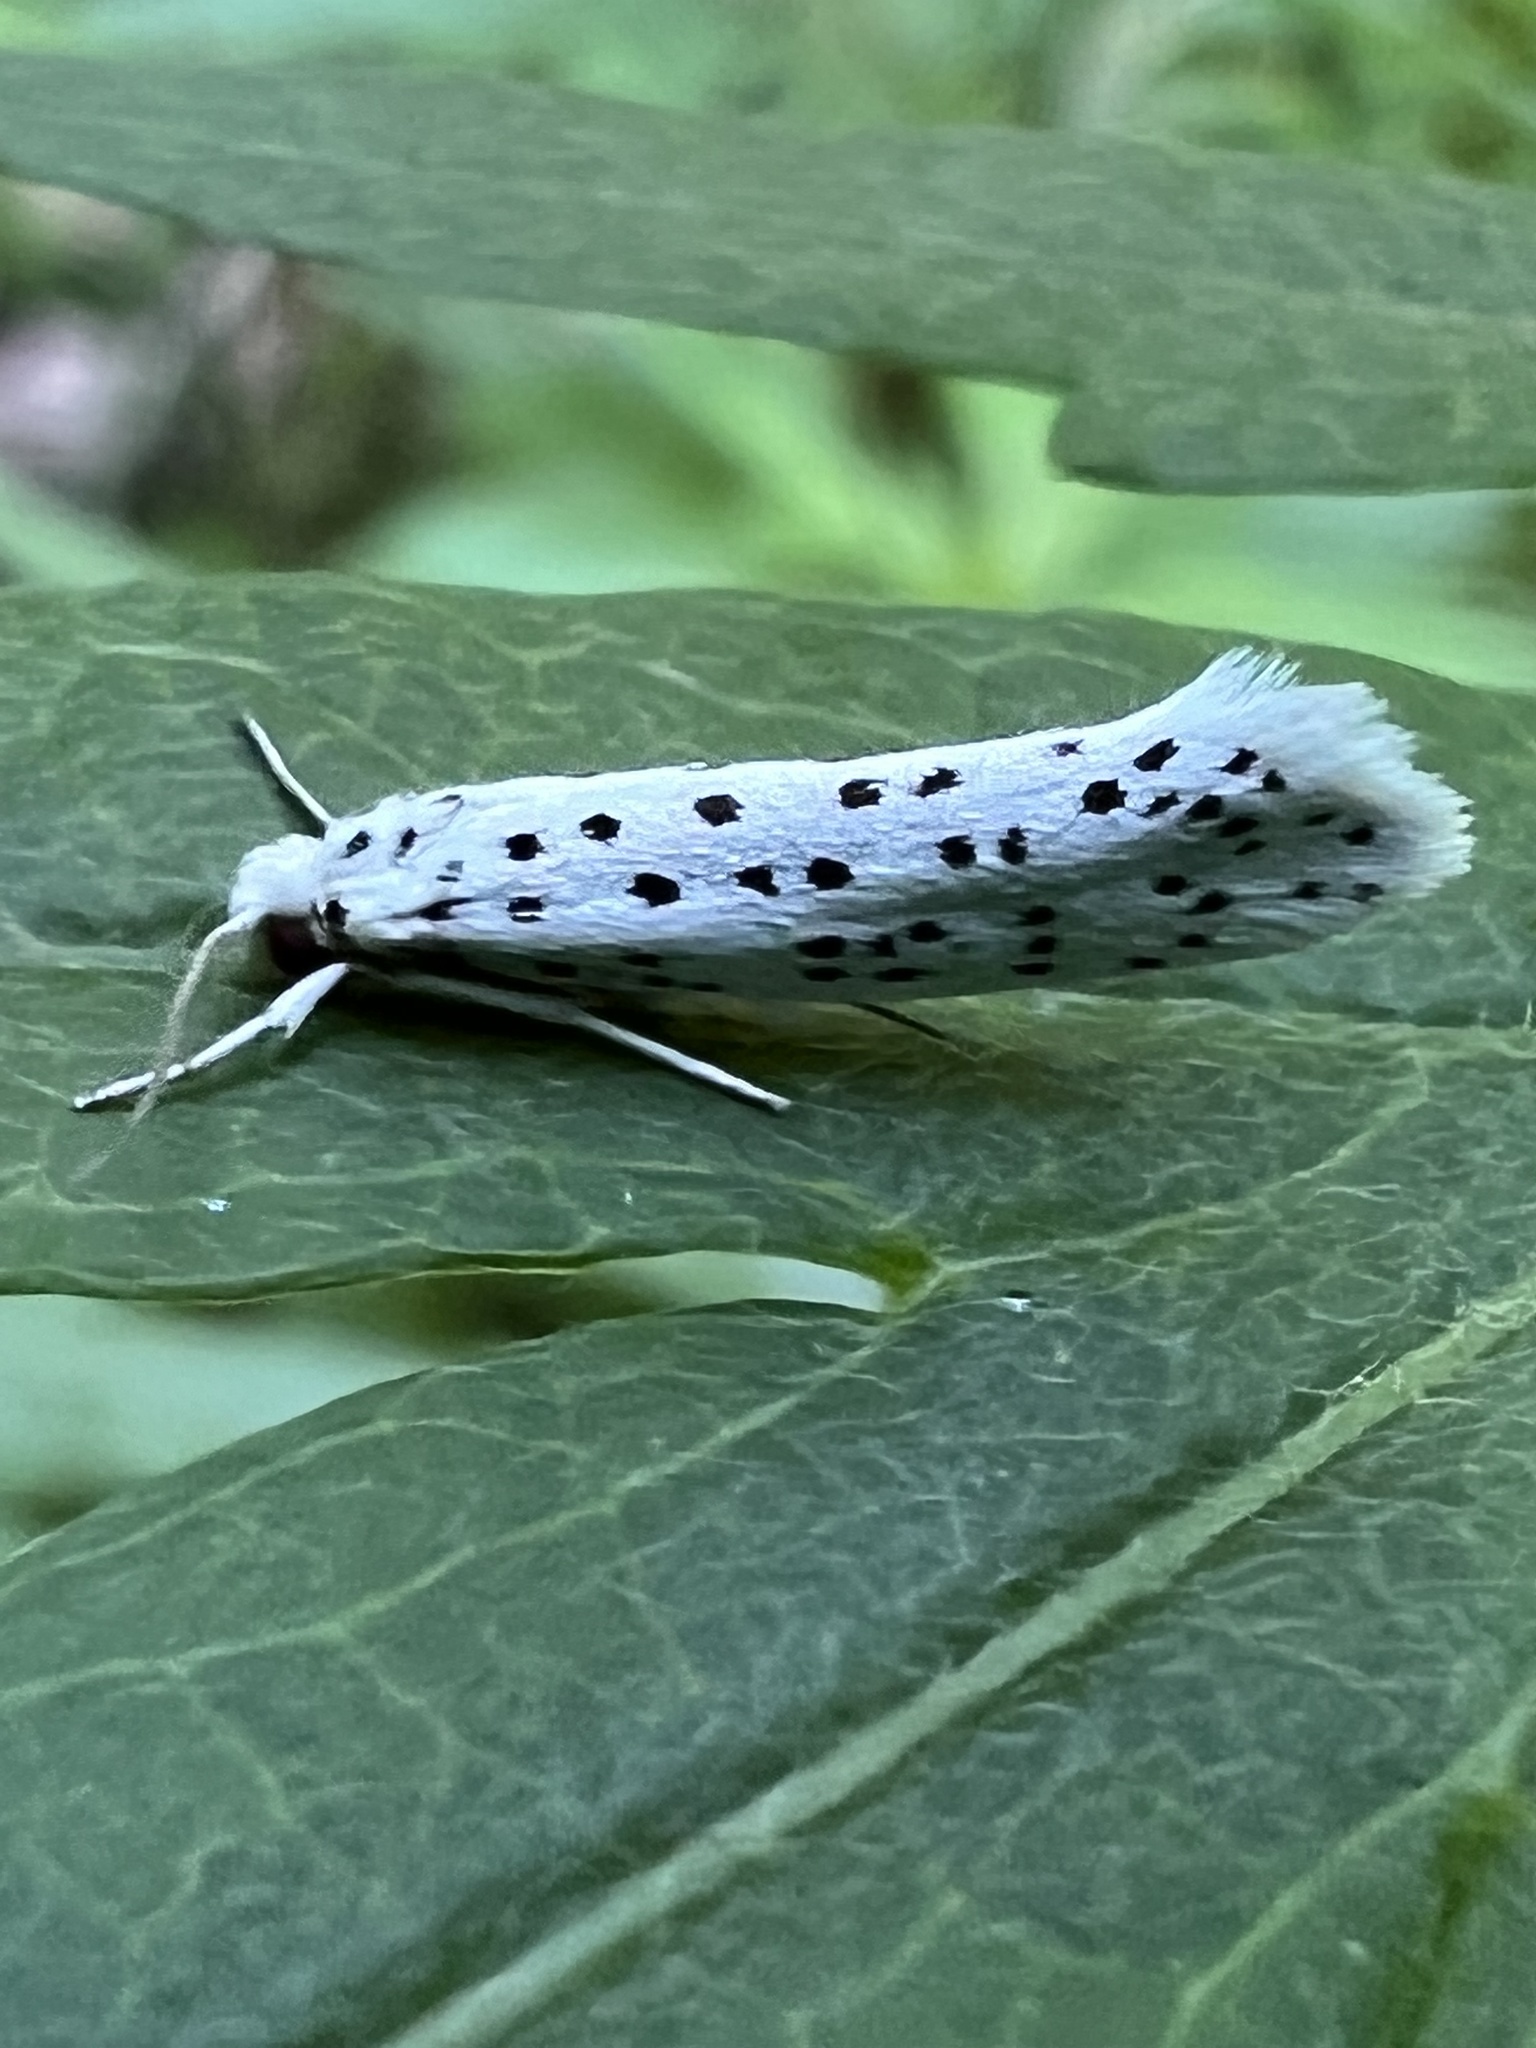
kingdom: Animalia
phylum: Arthropoda
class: Insecta
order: Lepidoptera
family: Yponomeutidae
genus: Yponomeuta
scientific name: Yponomeuta multipunctella
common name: American ermine moth
